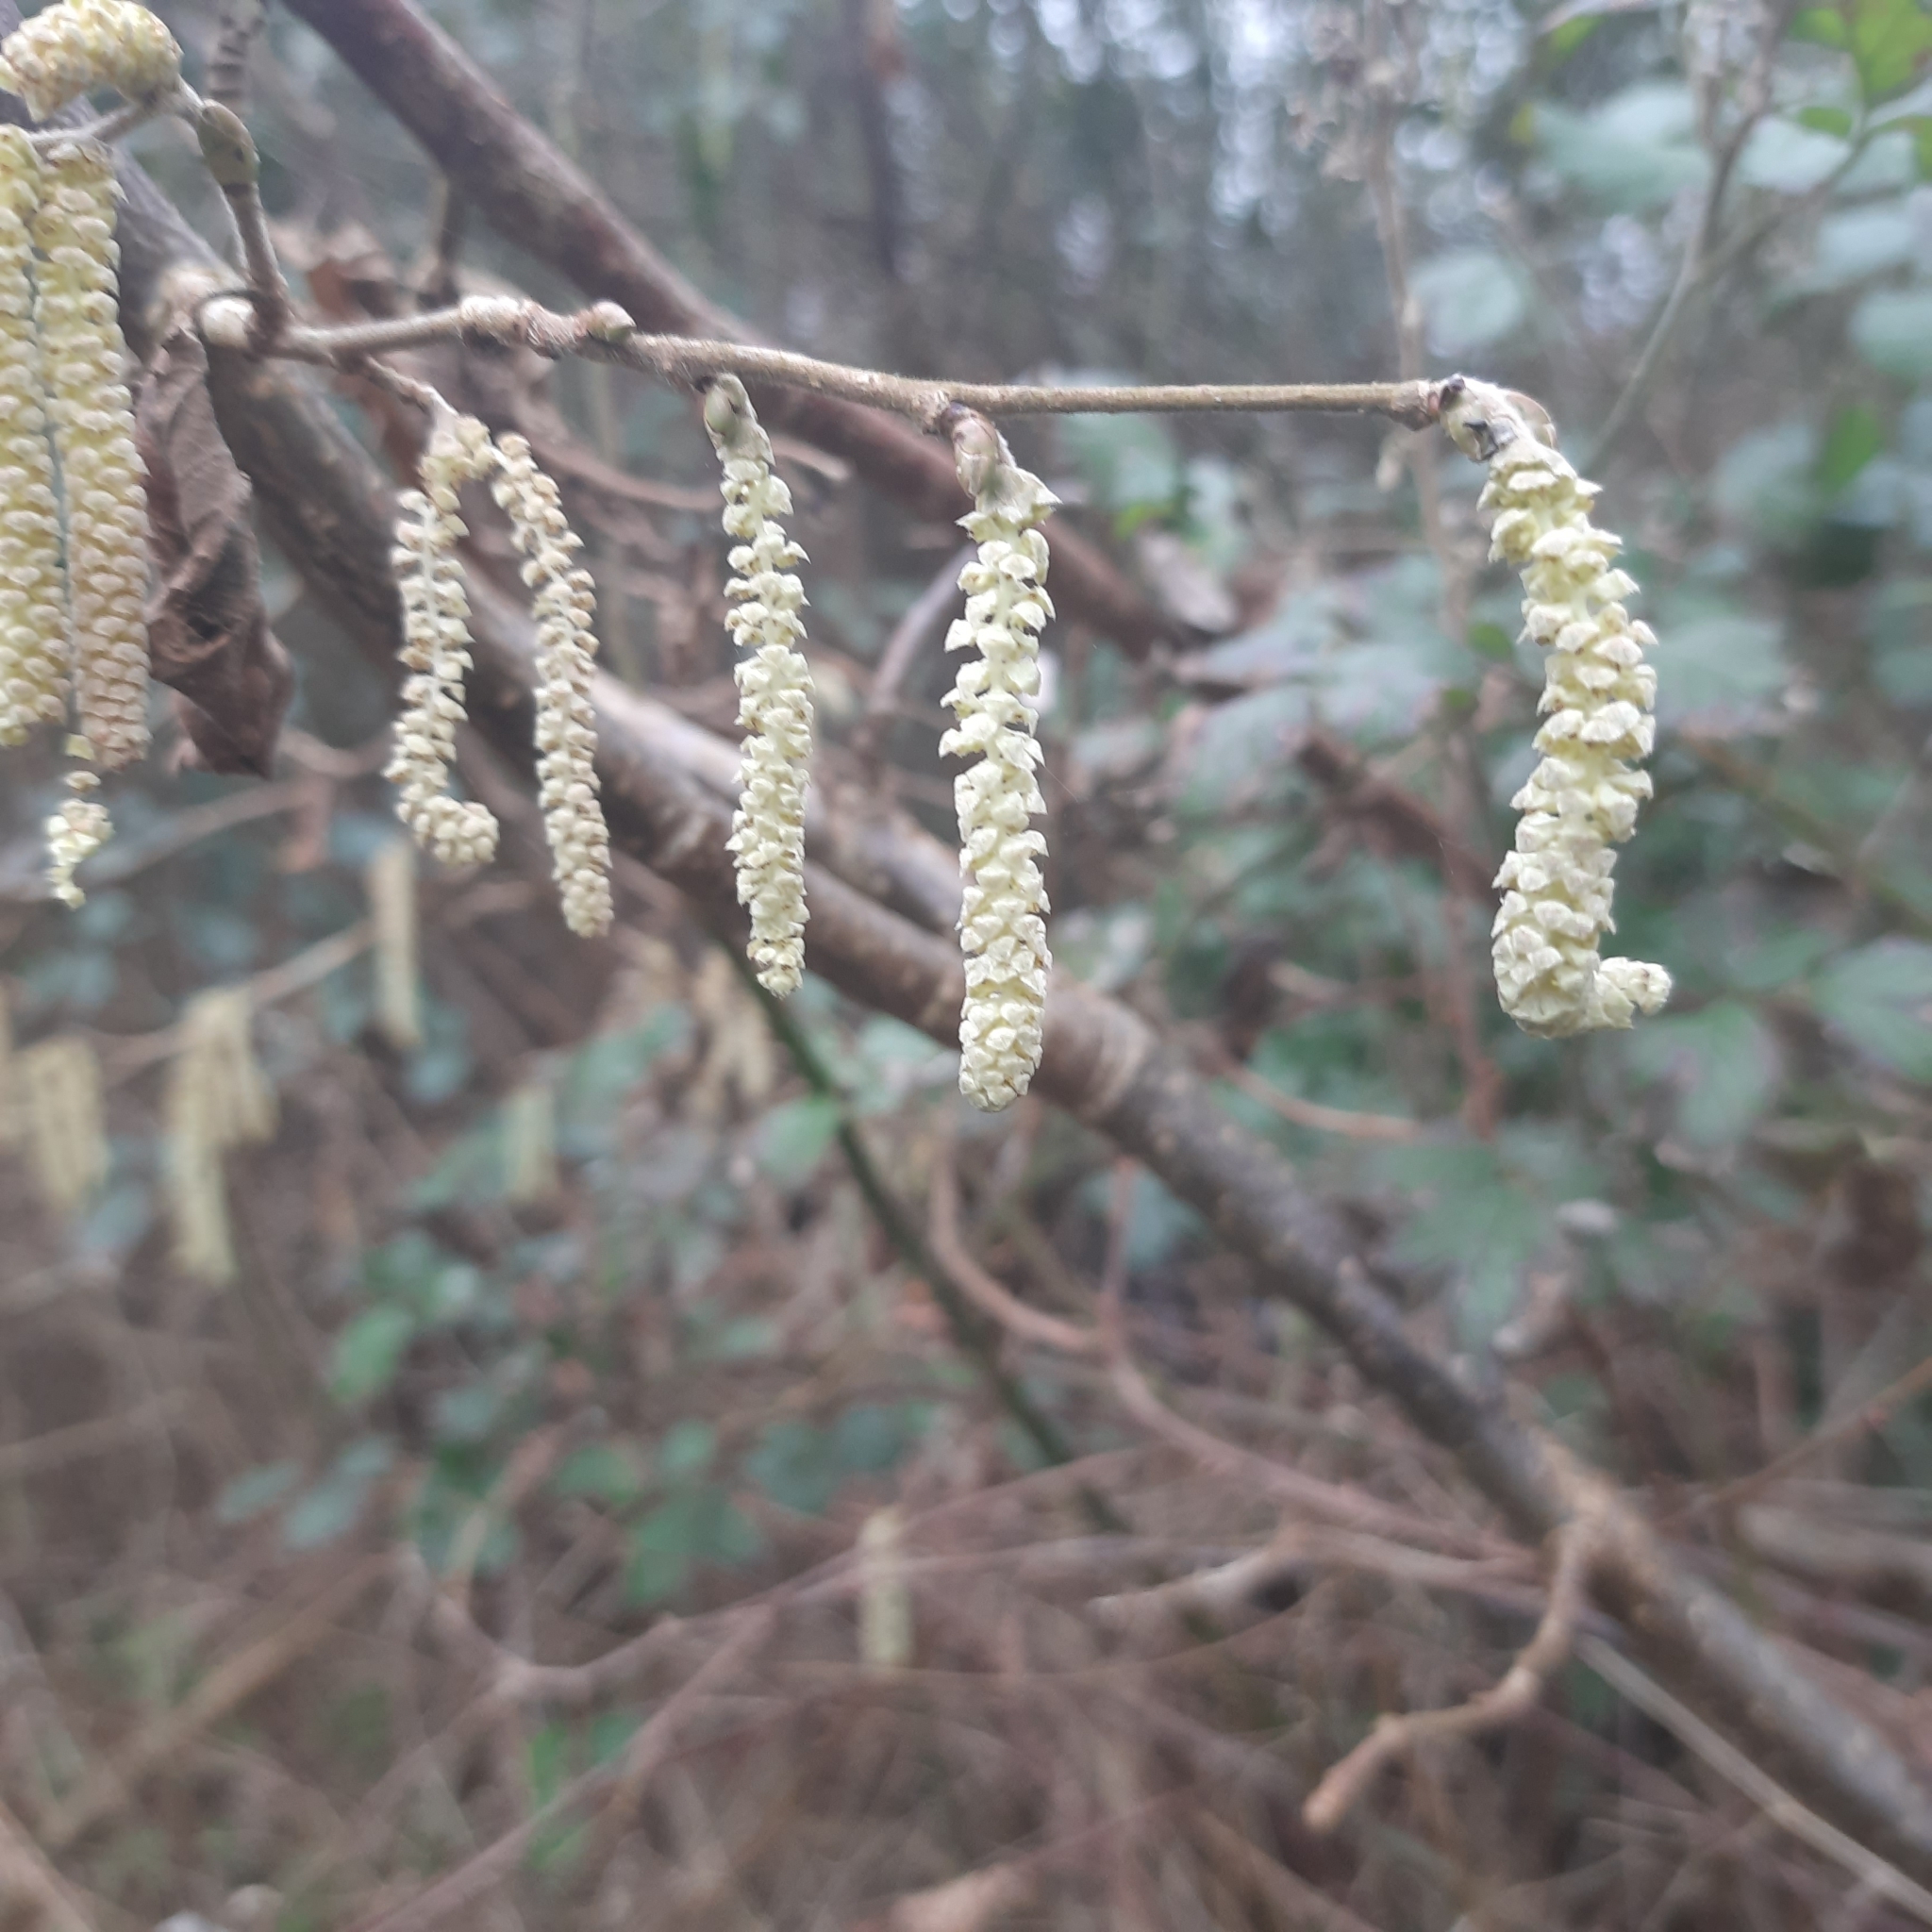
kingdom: Plantae
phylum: Tracheophyta
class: Magnoliopsida
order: Fagales
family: Betulaceae
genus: Corylus
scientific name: Corylus avellana
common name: European hazel
